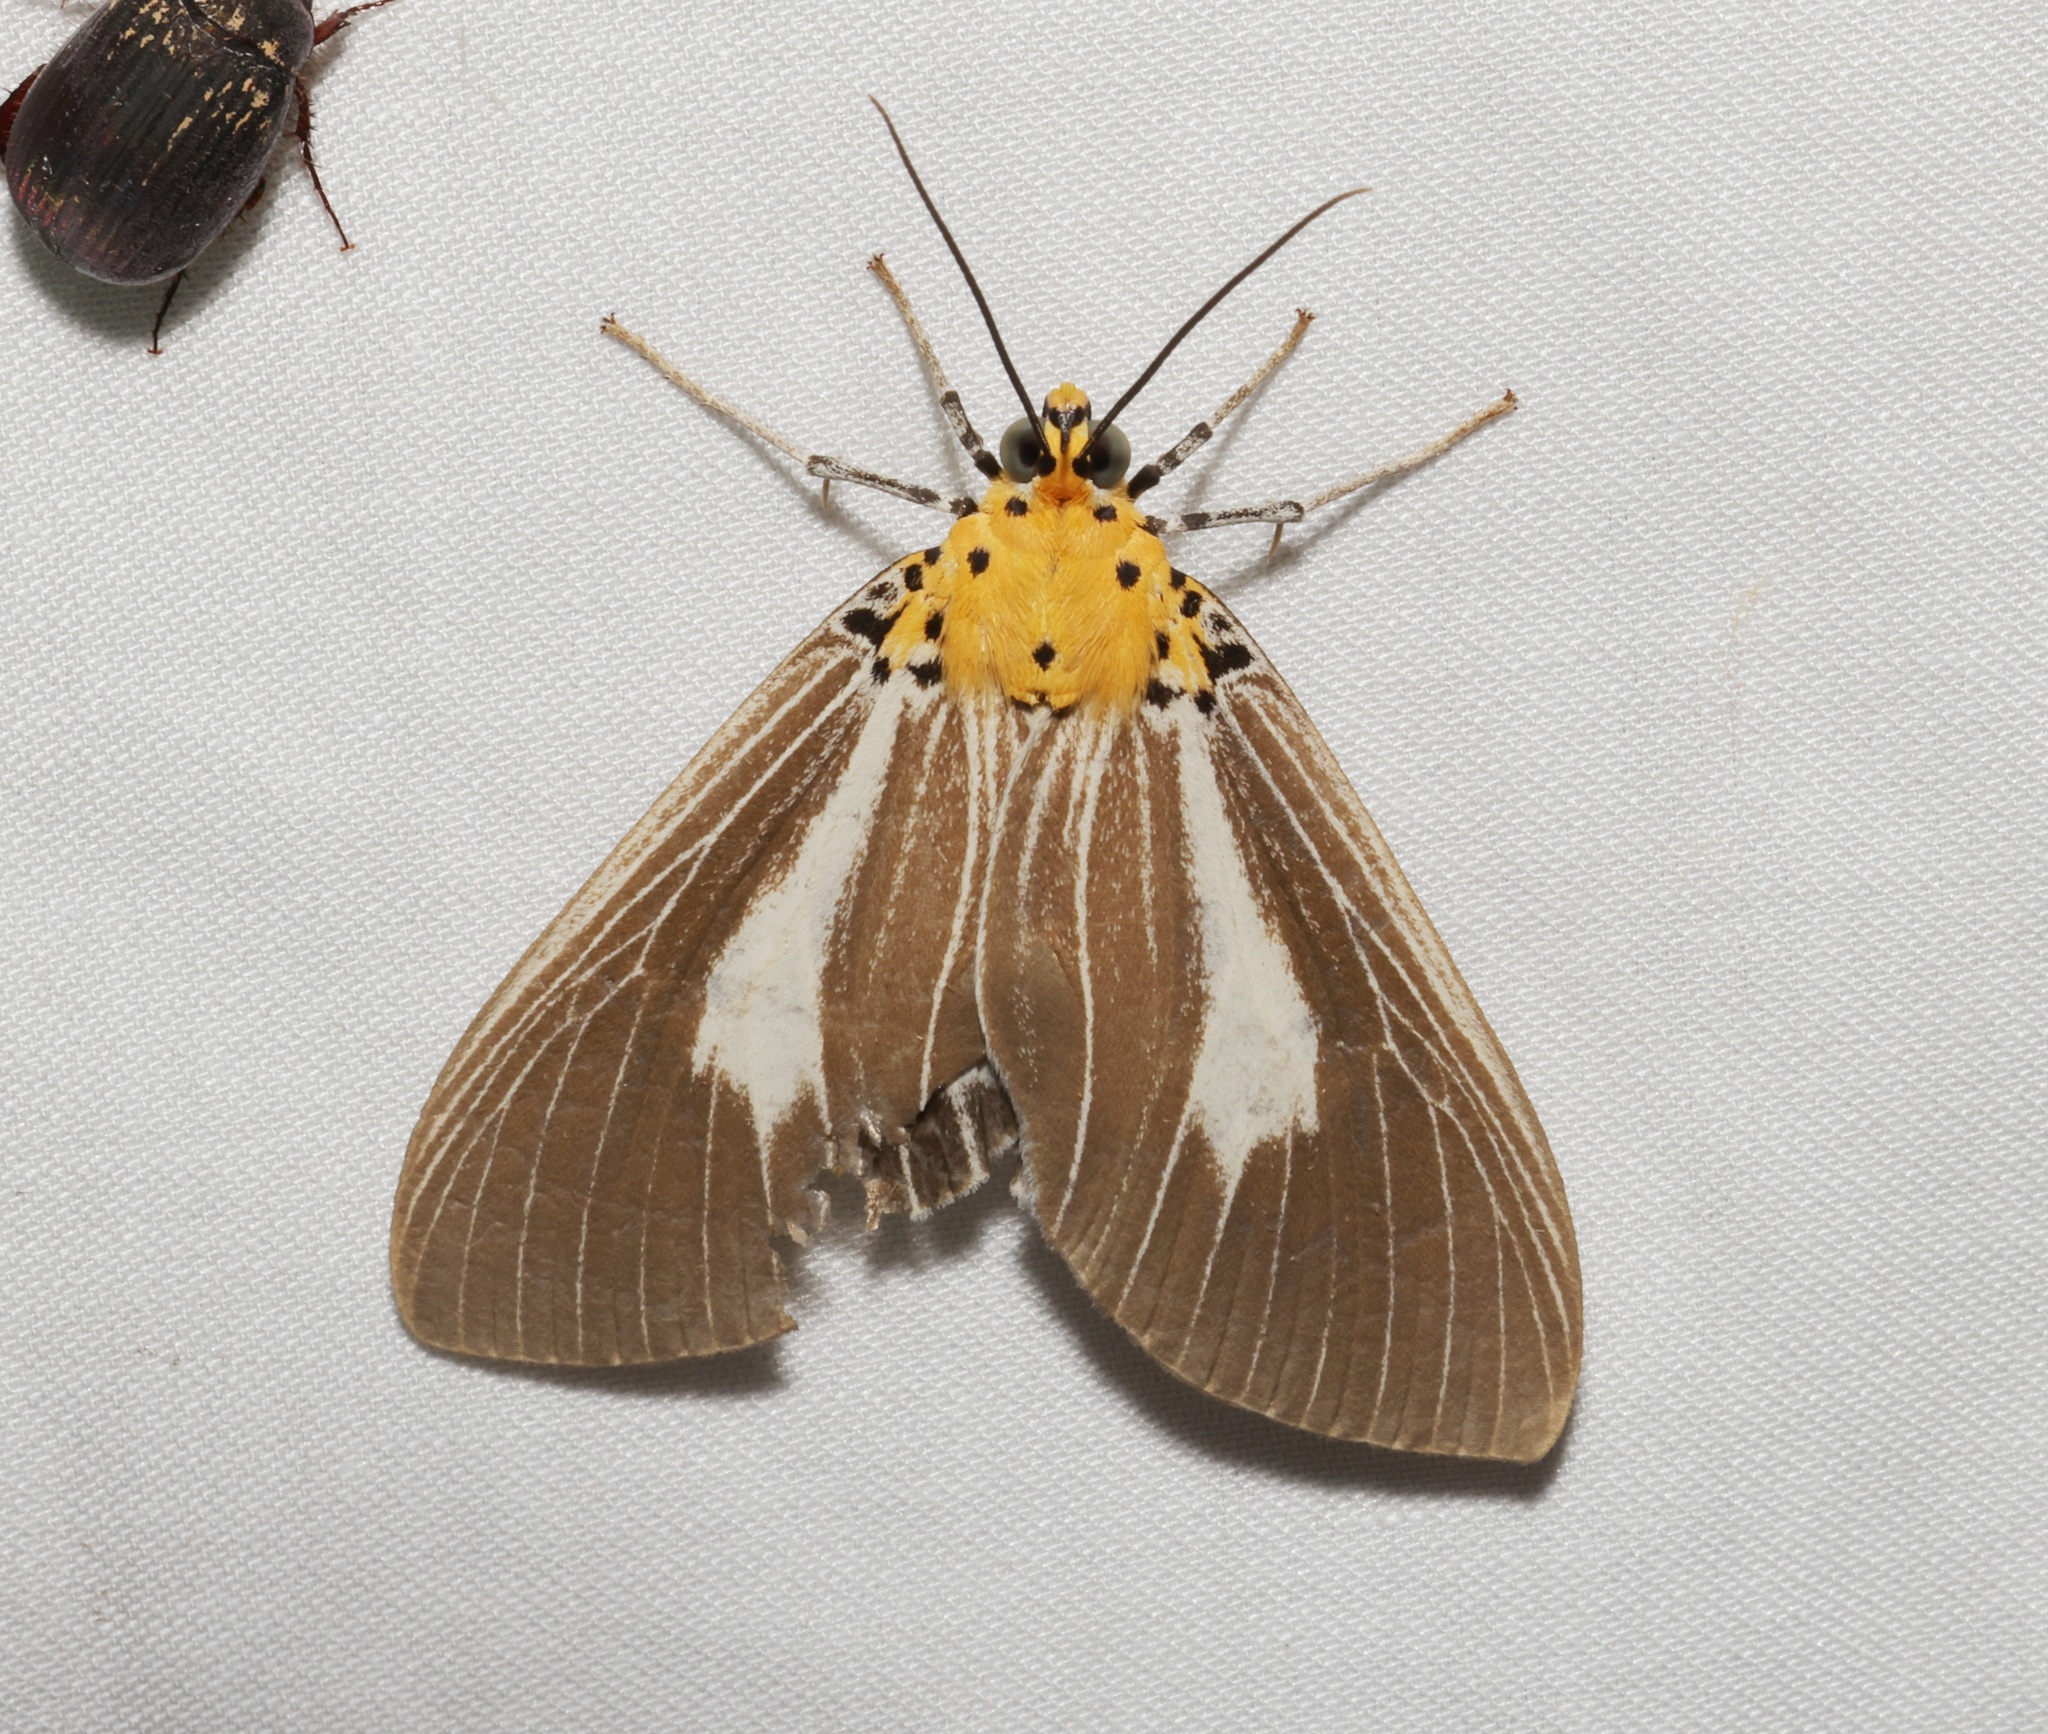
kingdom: Animalia
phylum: Arthropoda
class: Insecta
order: Lepidoptera
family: Erebidae
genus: Asota
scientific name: Asota heliconia
